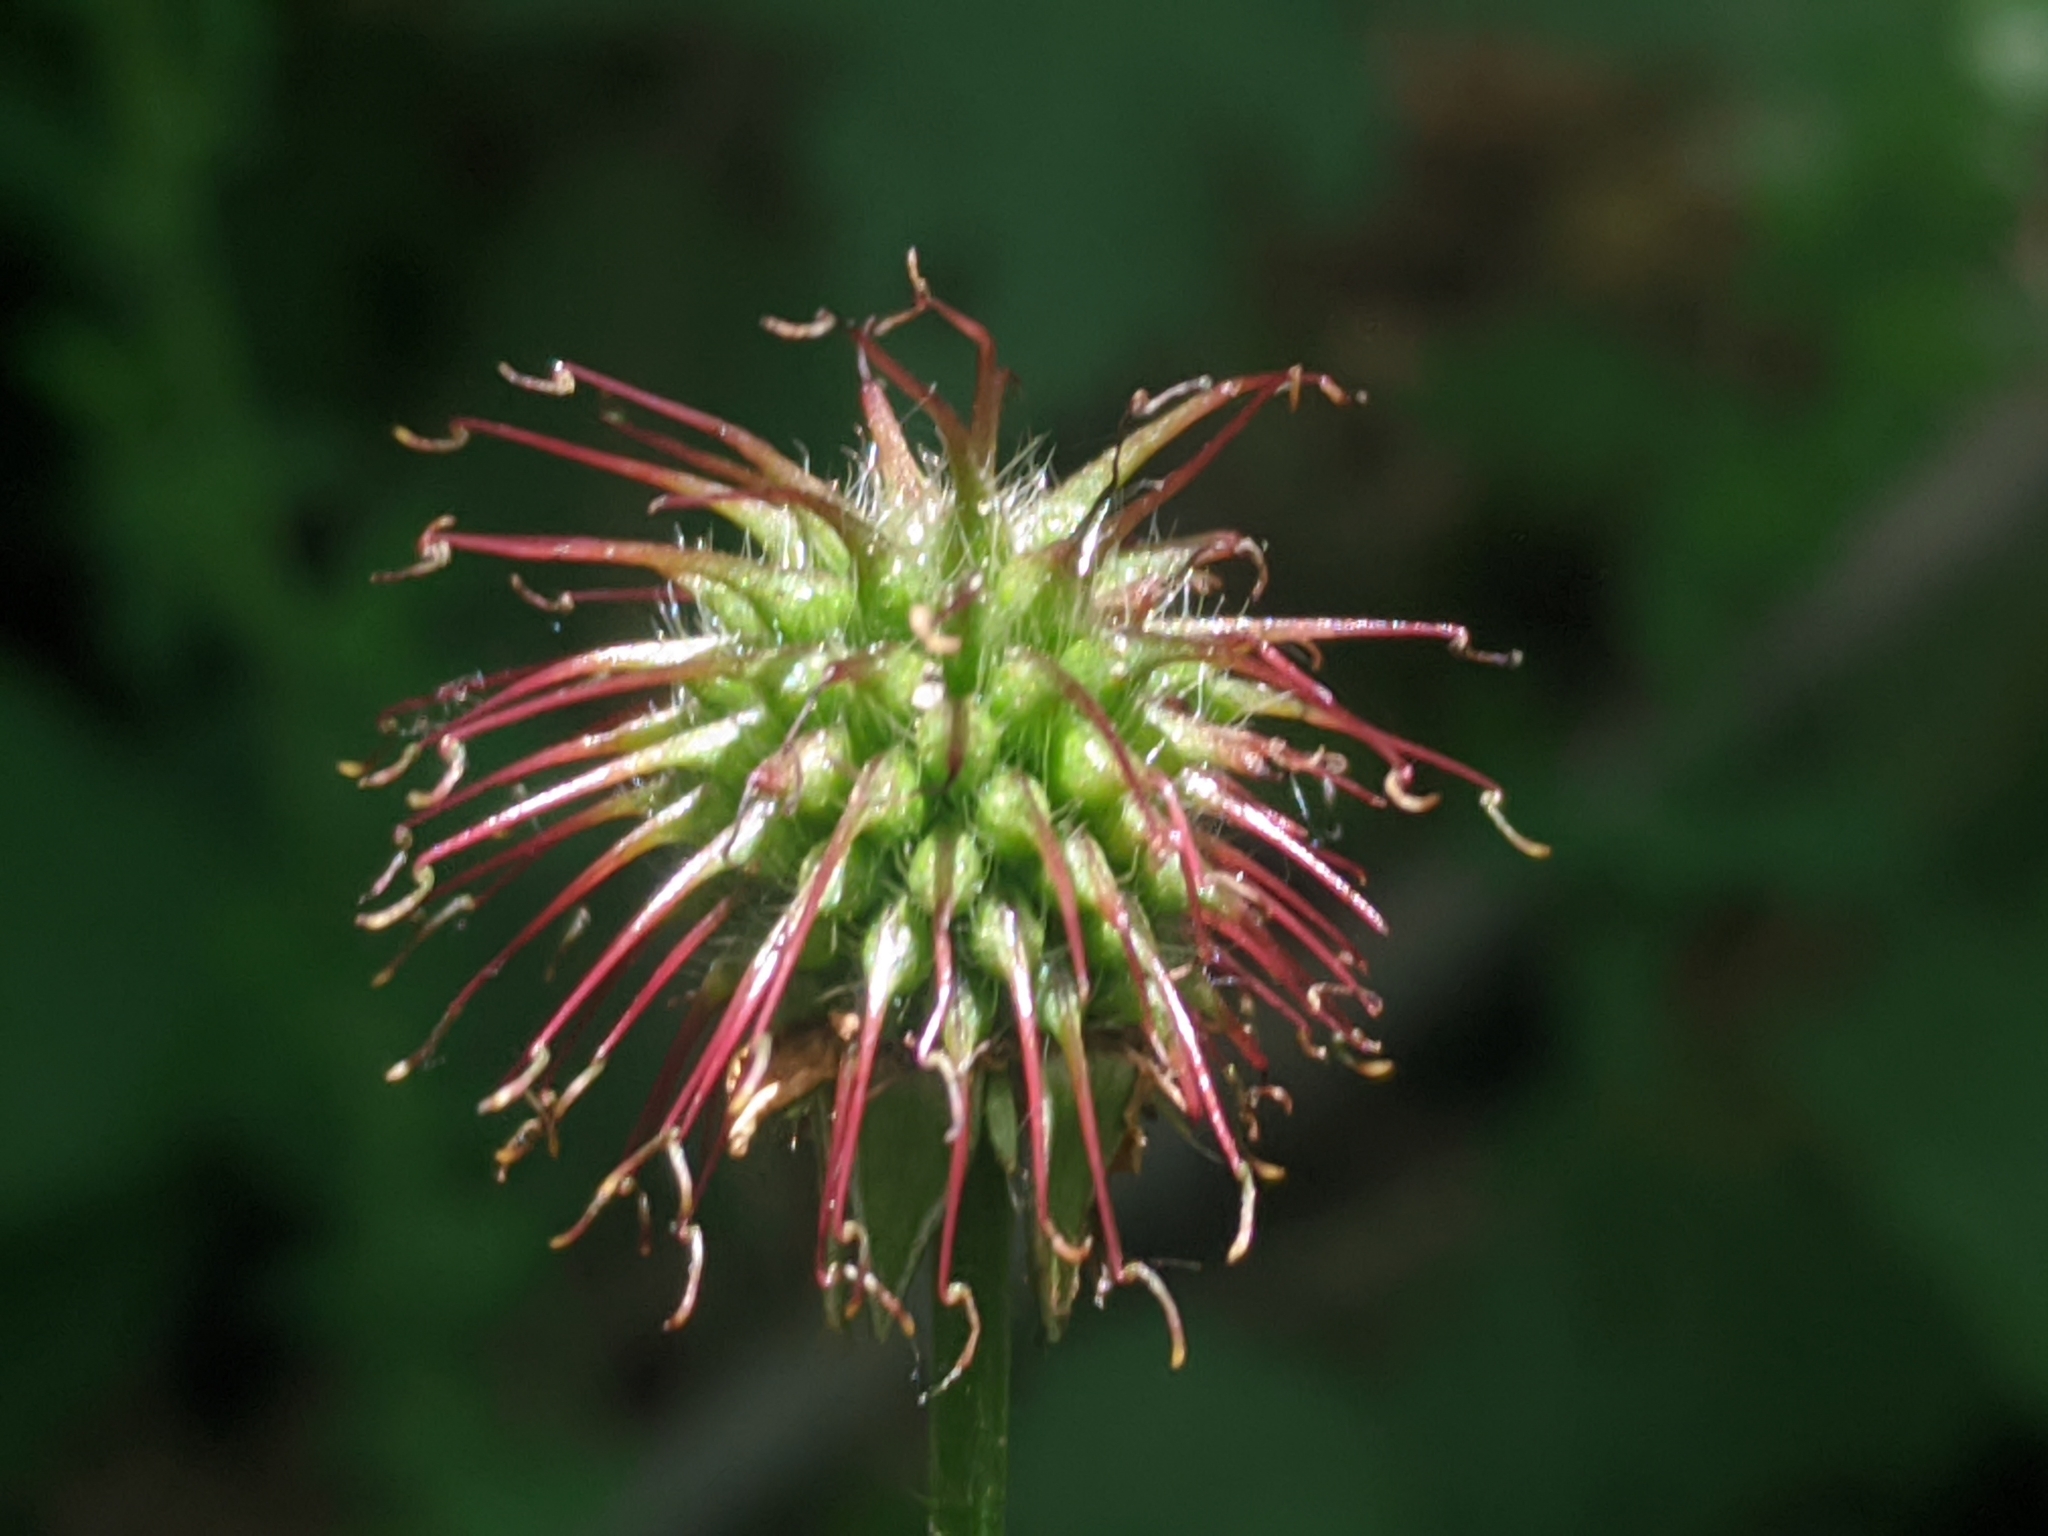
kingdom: Plantae
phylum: Tracheophyta
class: Magnoliopsida
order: Rosales
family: Rosaceae
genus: Geum
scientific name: Geum urbanum
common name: Wood avens
